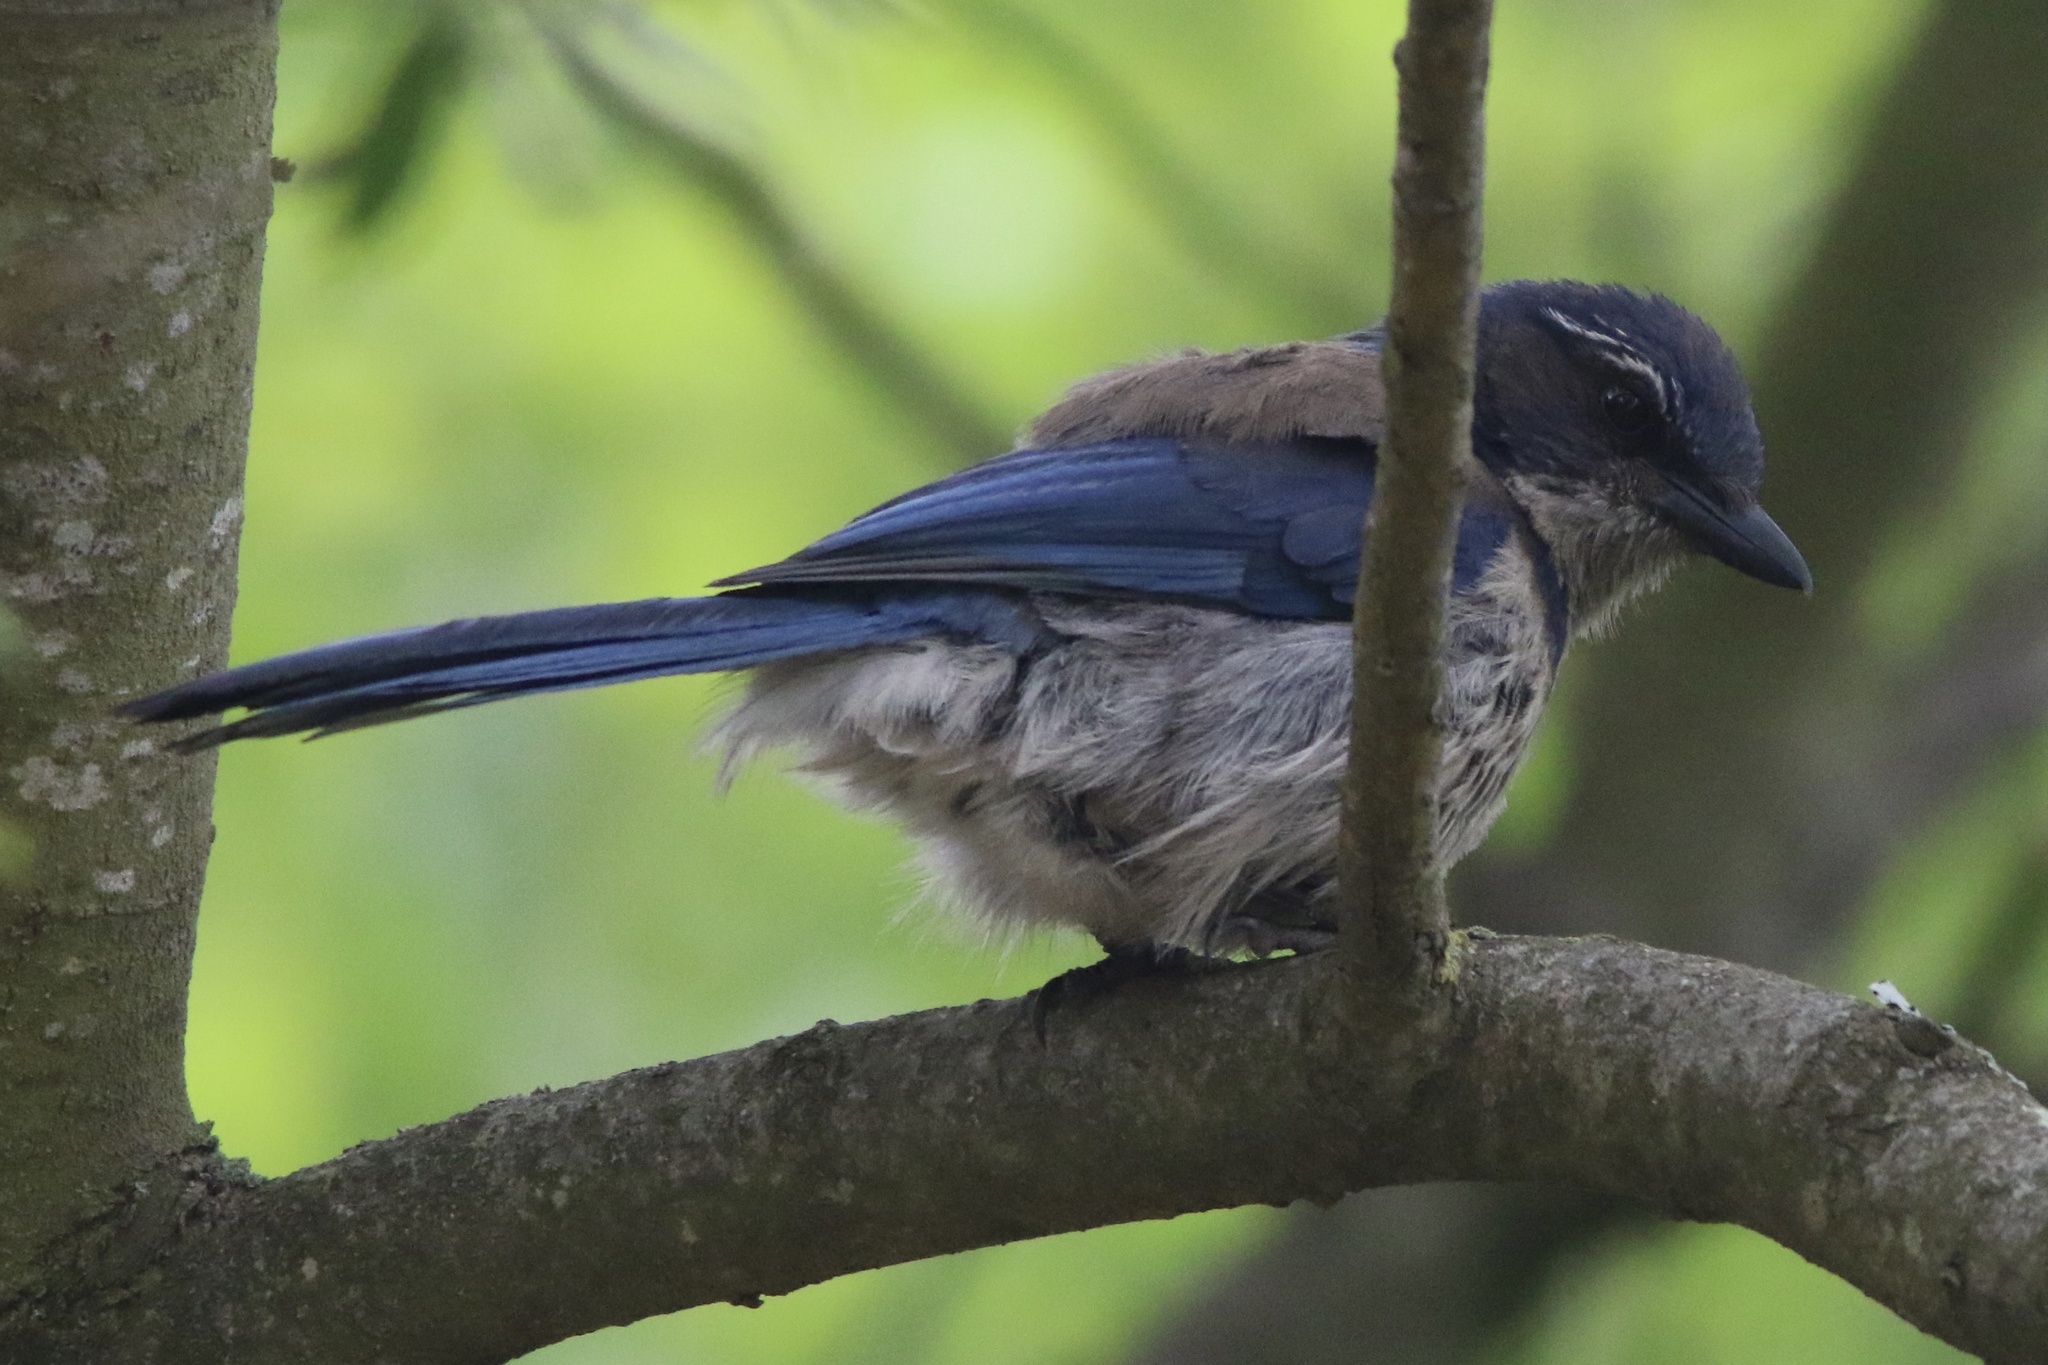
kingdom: Animalia
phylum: Chordata
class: Aves
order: Passeriformes
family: Corvidae
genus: Aphelocoma
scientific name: Aphelocoma californica
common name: California scrub-jay
